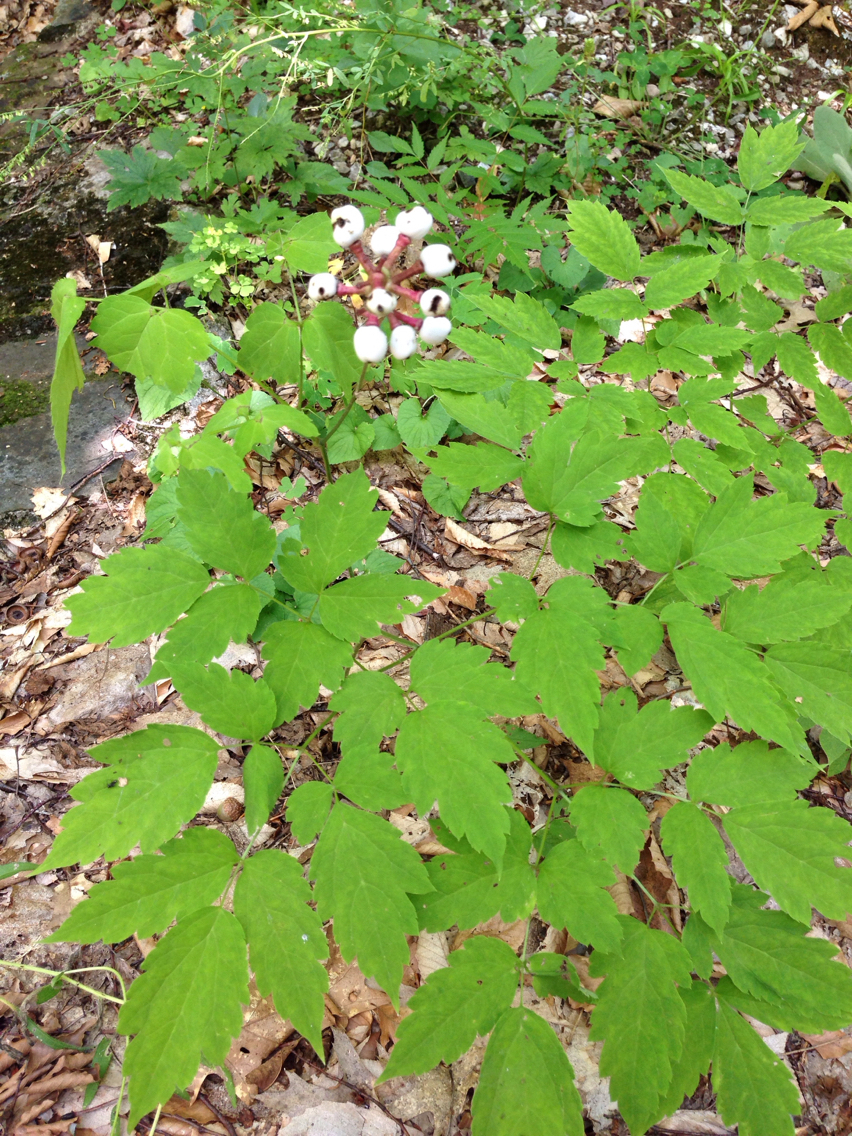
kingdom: Plantae
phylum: Tracheophyta
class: Magnoliopsida
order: Ranunculales
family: Ranunculaceae
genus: Actaea
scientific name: Actaea pachypoda
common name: Doll's-eyes
